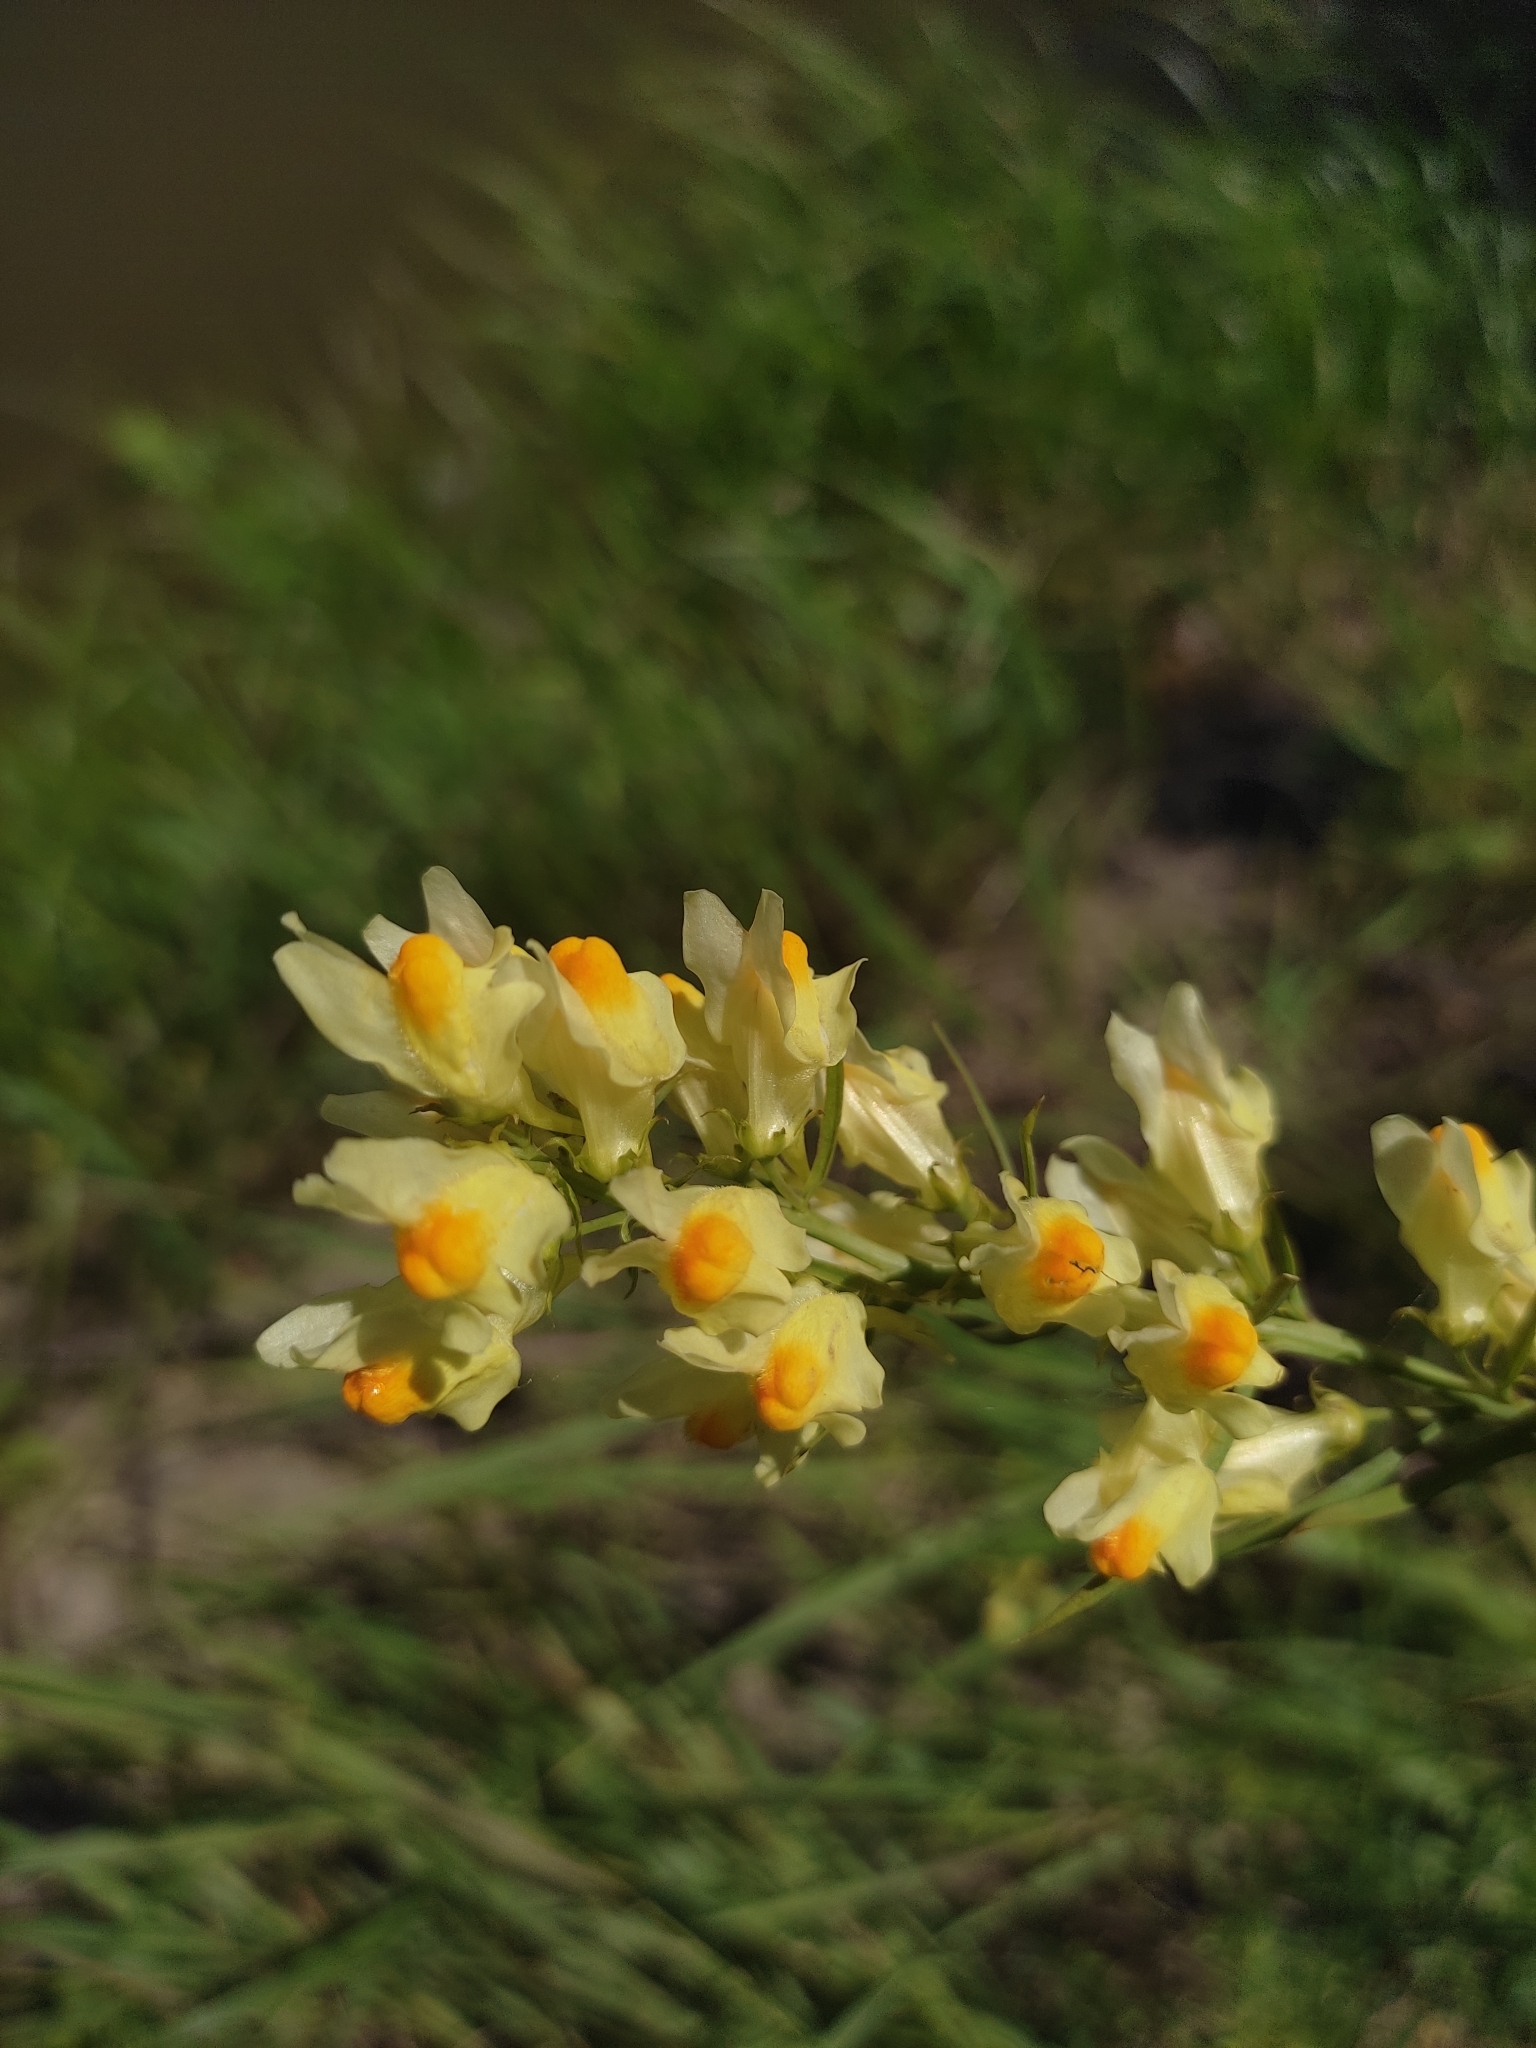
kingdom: Plantae
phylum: Tracheophyta
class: Magnoliopsida
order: Lamiales
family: Plantaginaceae
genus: Linaria
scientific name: Linaria vulgaris
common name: Butter and eggs
